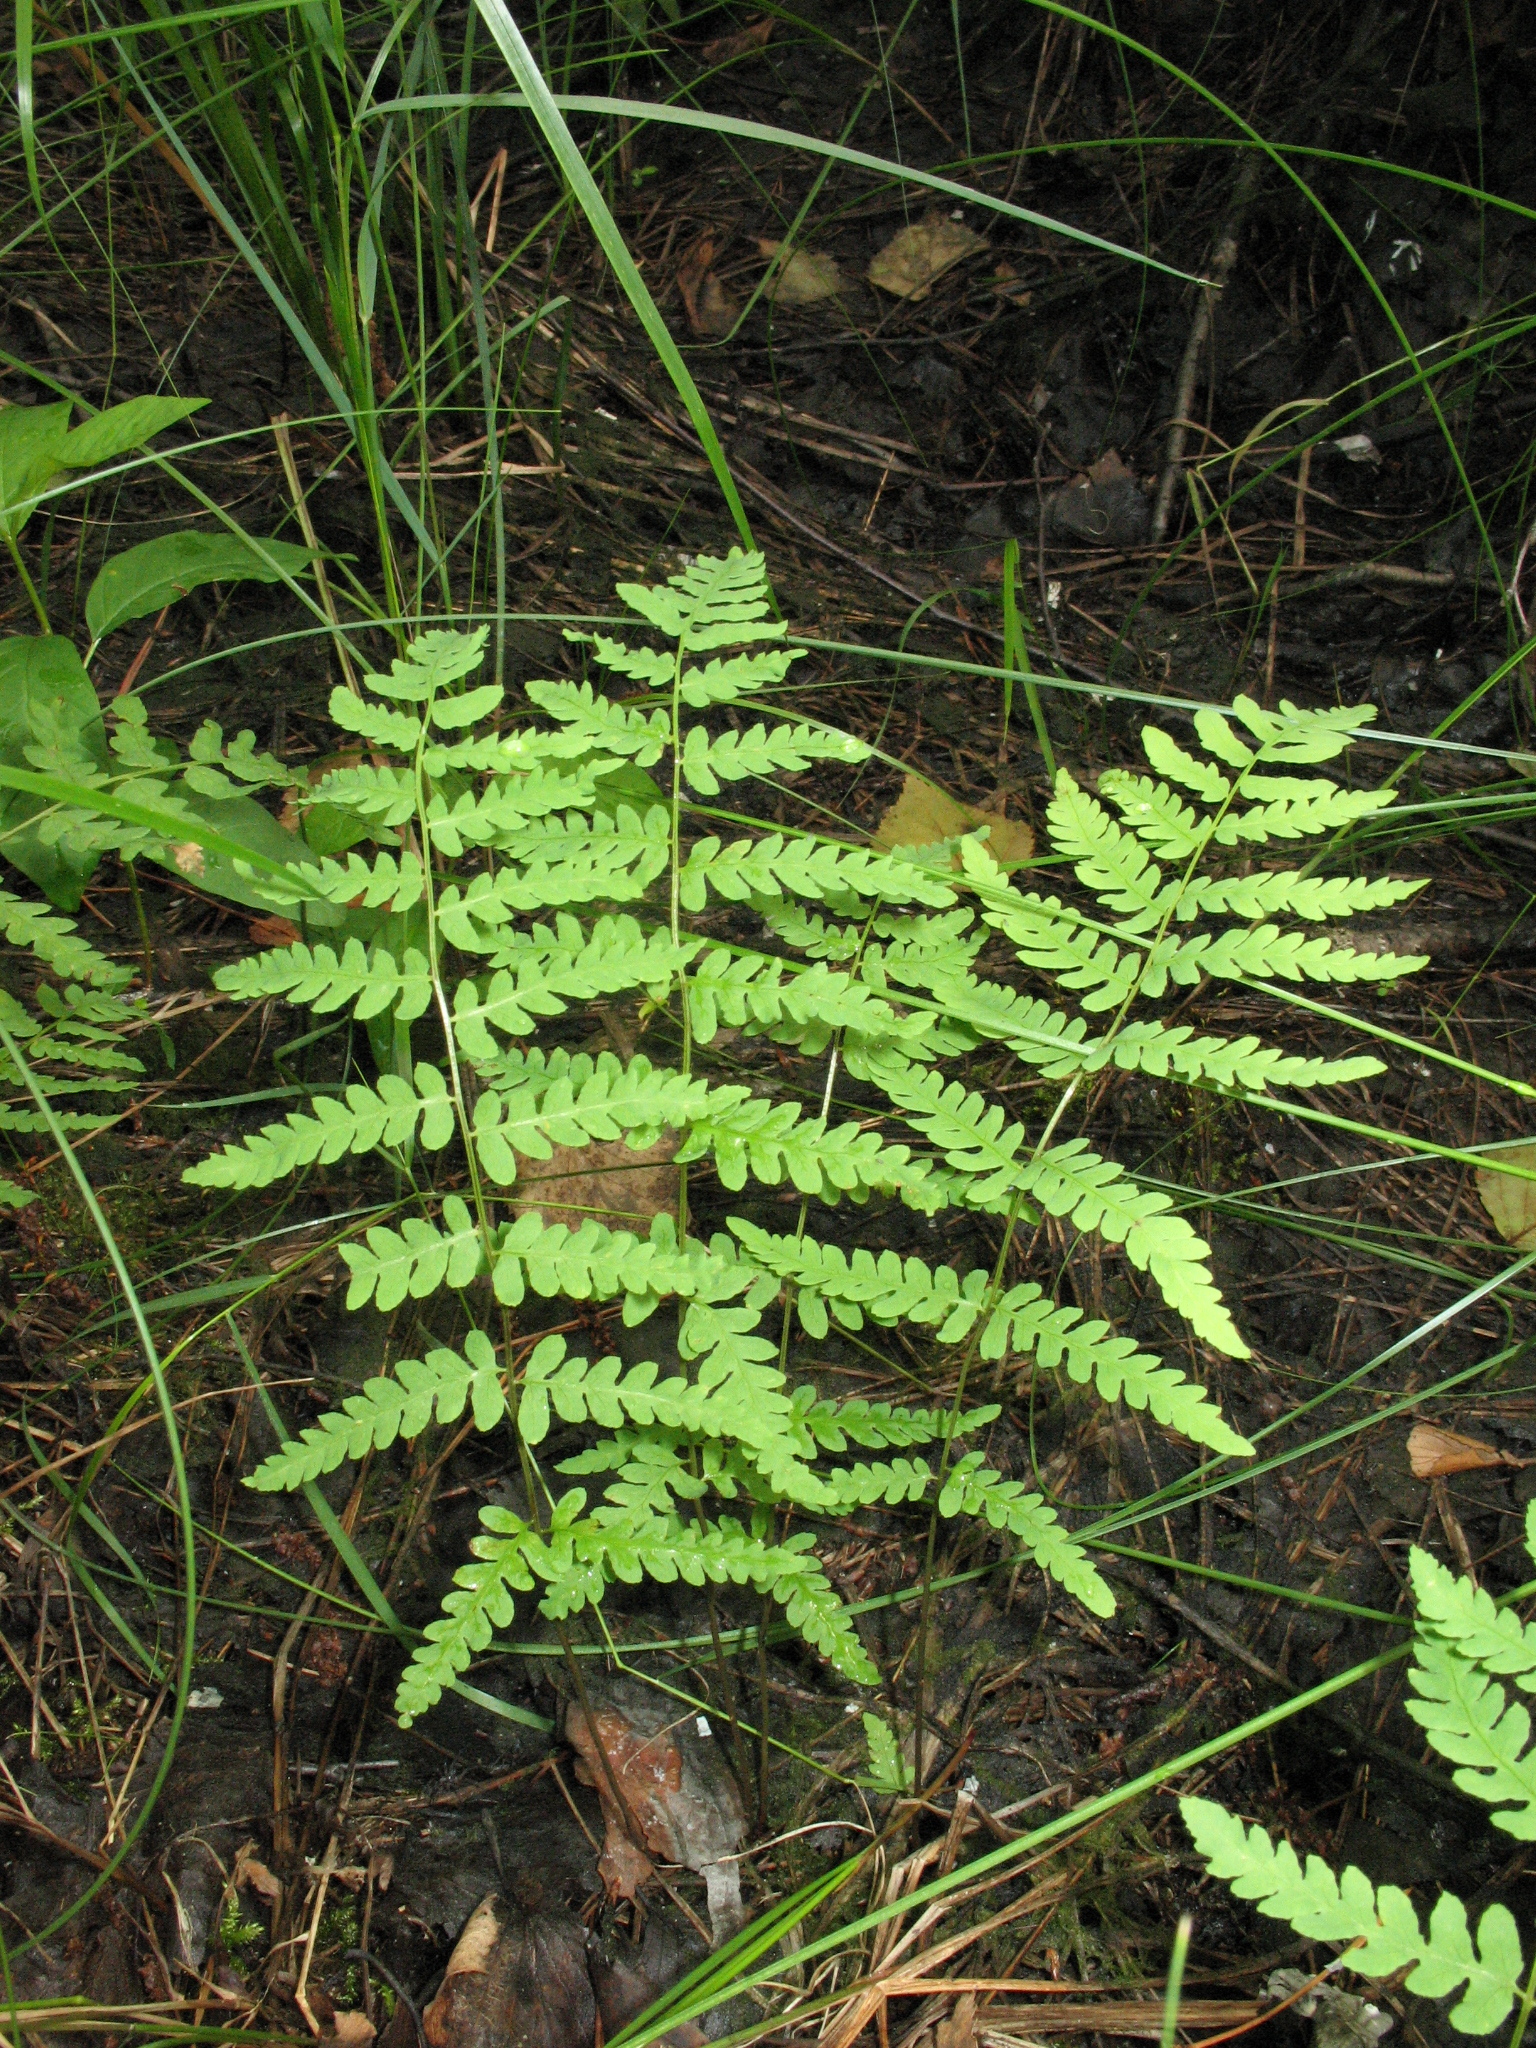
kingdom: Plantae
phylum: Tracheophyta
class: Polypodiopsida
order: Polypodiales
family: Thelypteridaceae
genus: Thelypteris
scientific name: Thelypteris palustris
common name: Marsh fern
